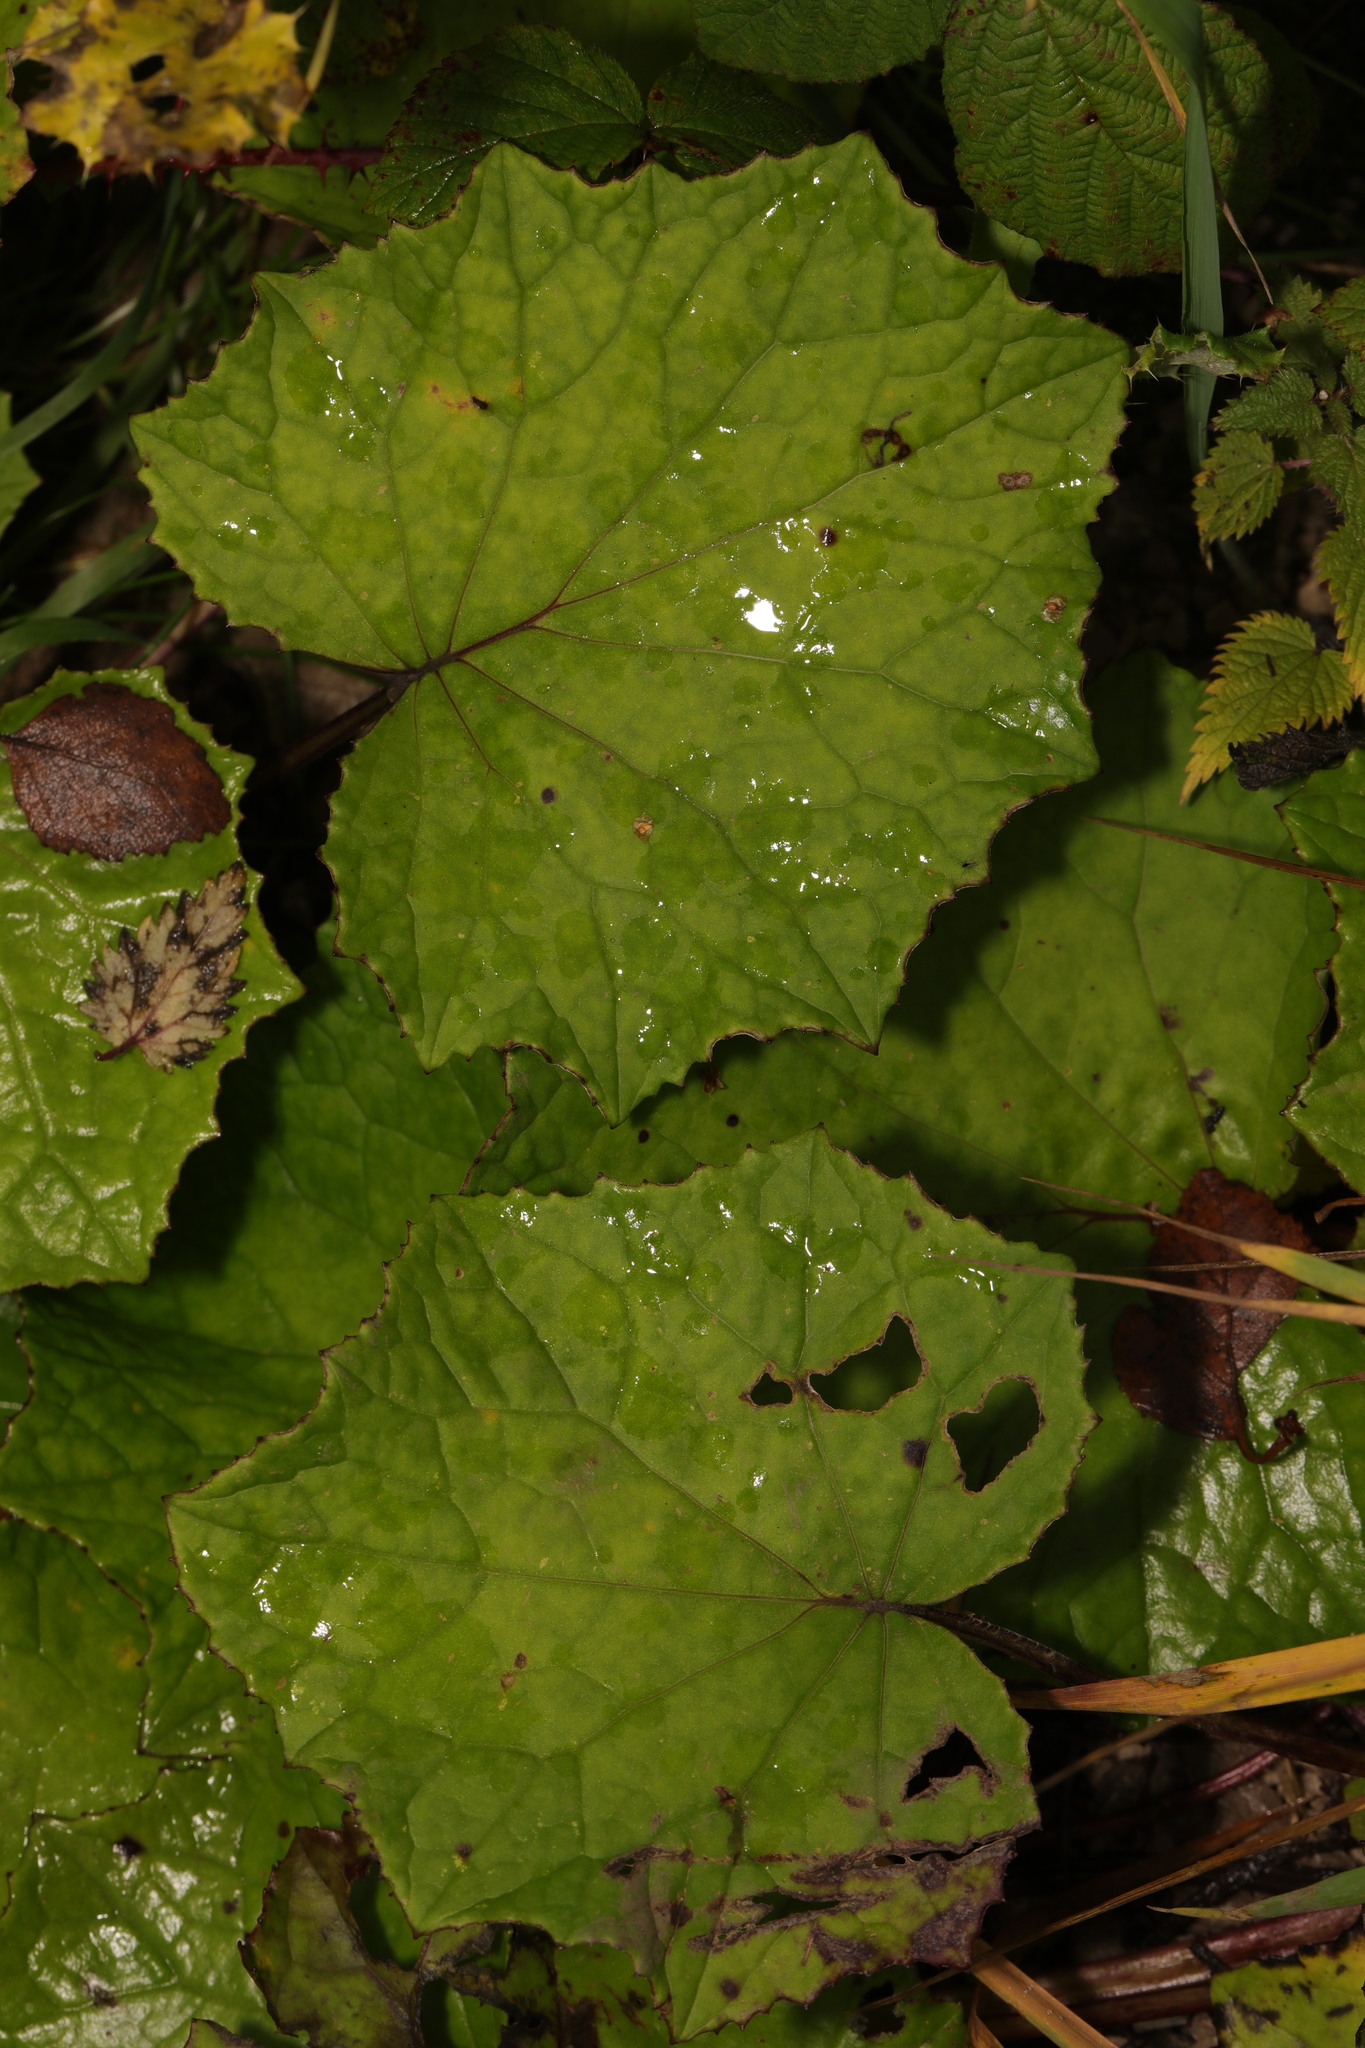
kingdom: Plantae
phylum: Tracheophyta
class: Magnoliopsida
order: Asterales
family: Asteraceae
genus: Tussilago
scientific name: Tussilago farfara
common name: Coltsfoot
